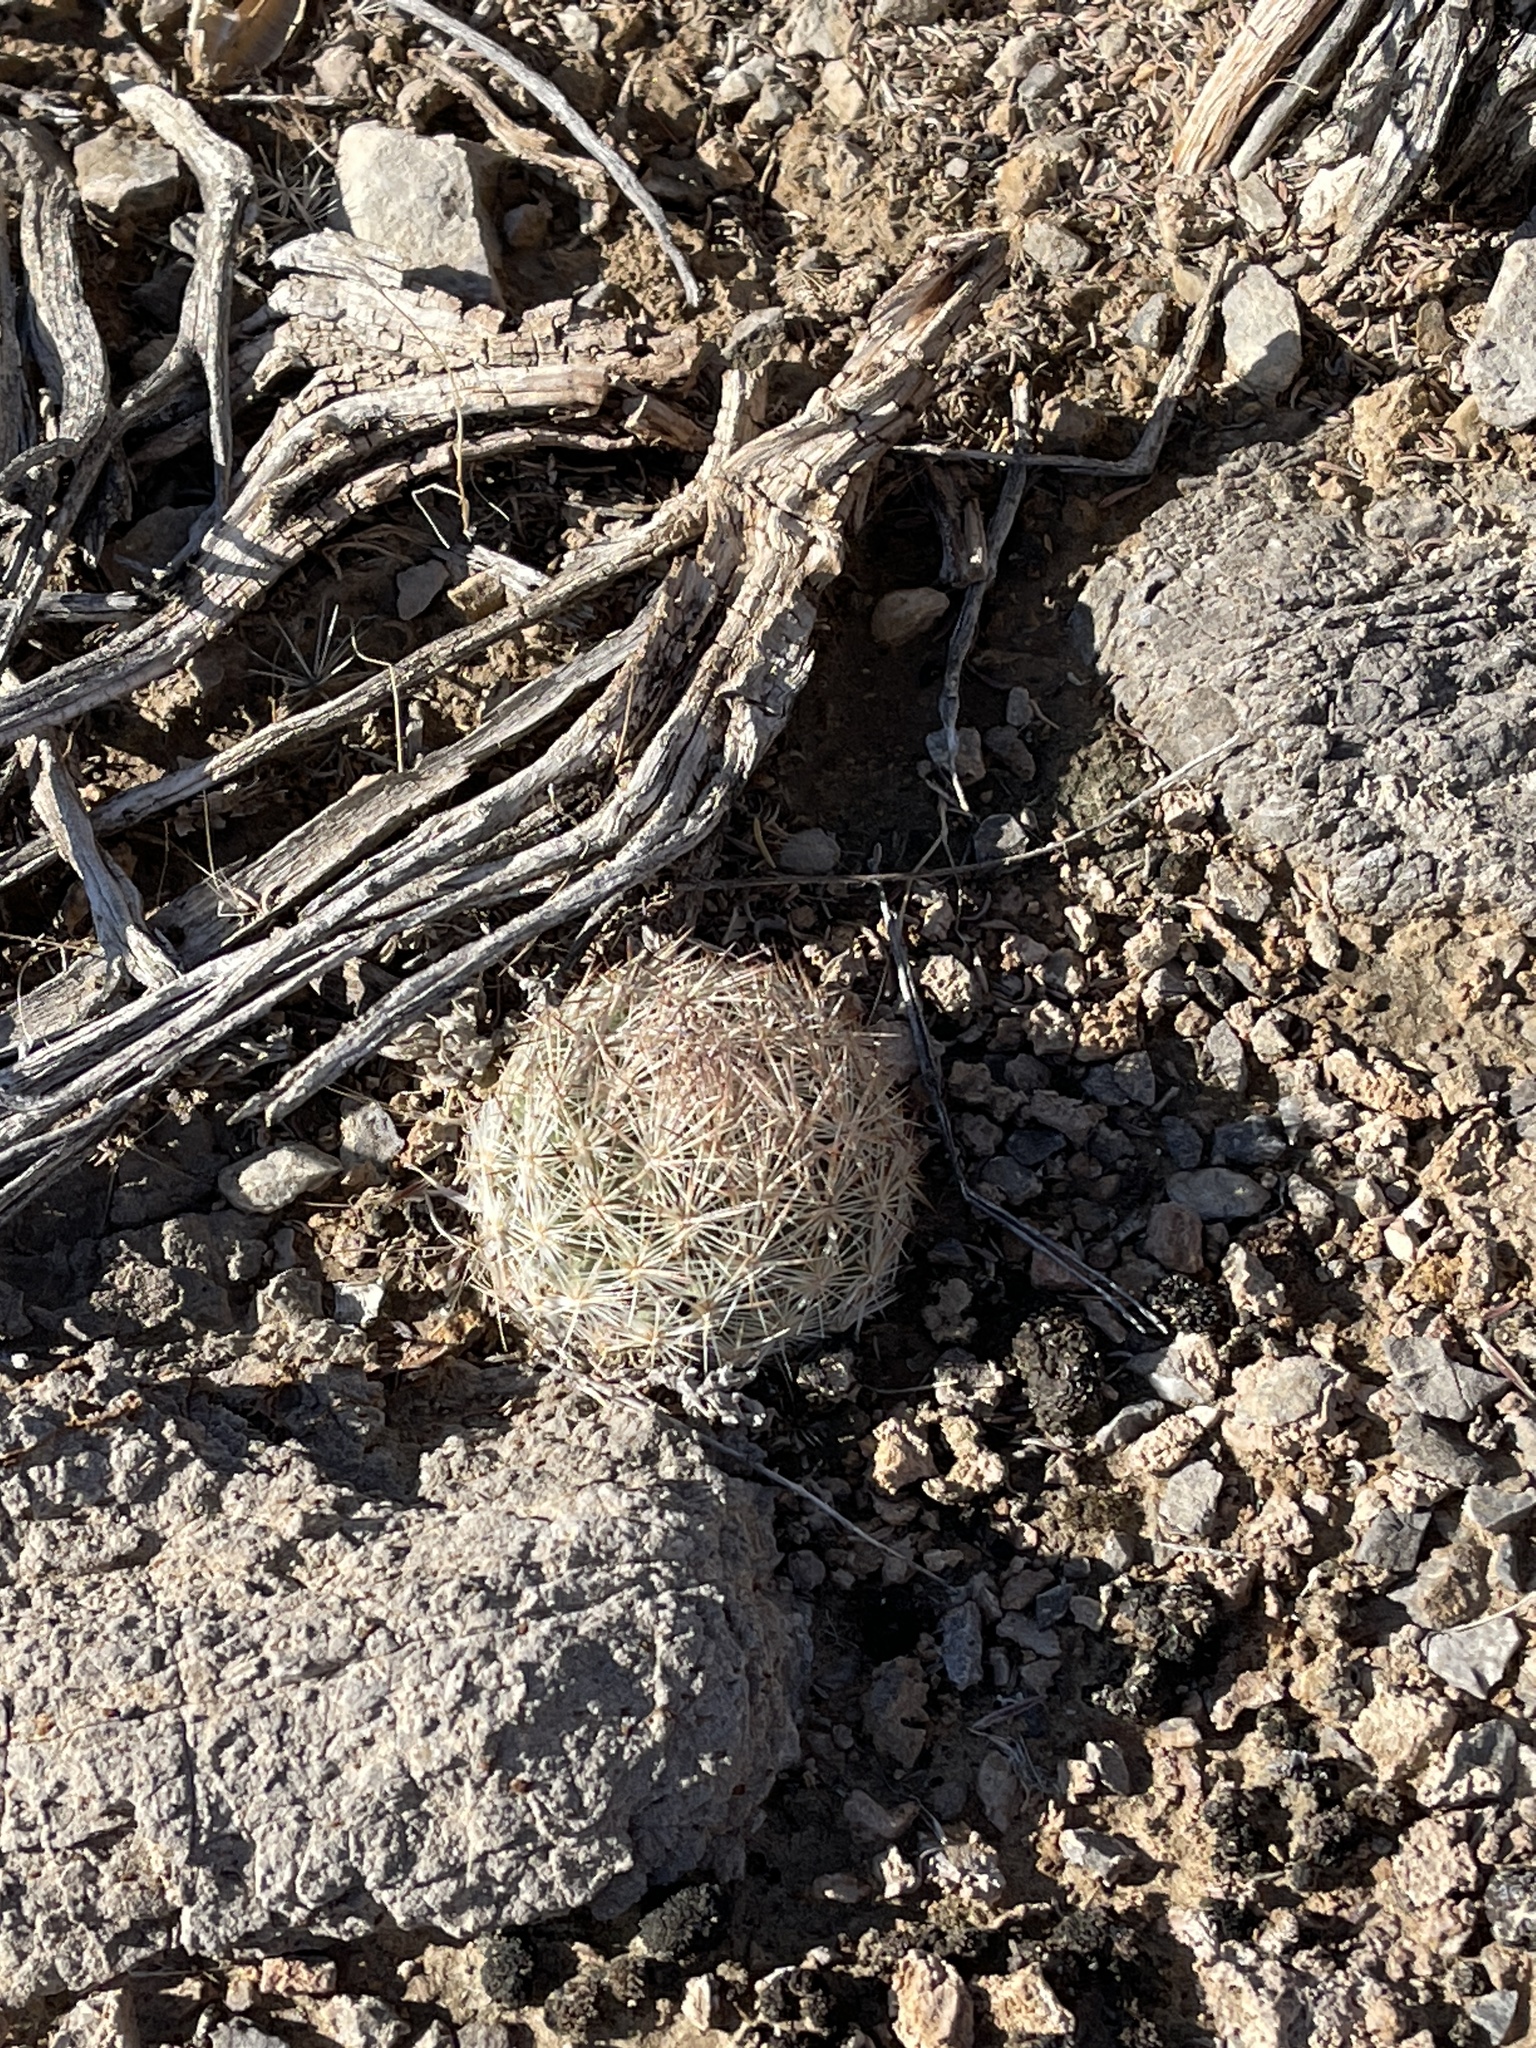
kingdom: Plantae
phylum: Tracheophyta
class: Magnoliopsida
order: Caryophyllales
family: Cactaceae
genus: Pelecyphora
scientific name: Pelecyphora vivipara
